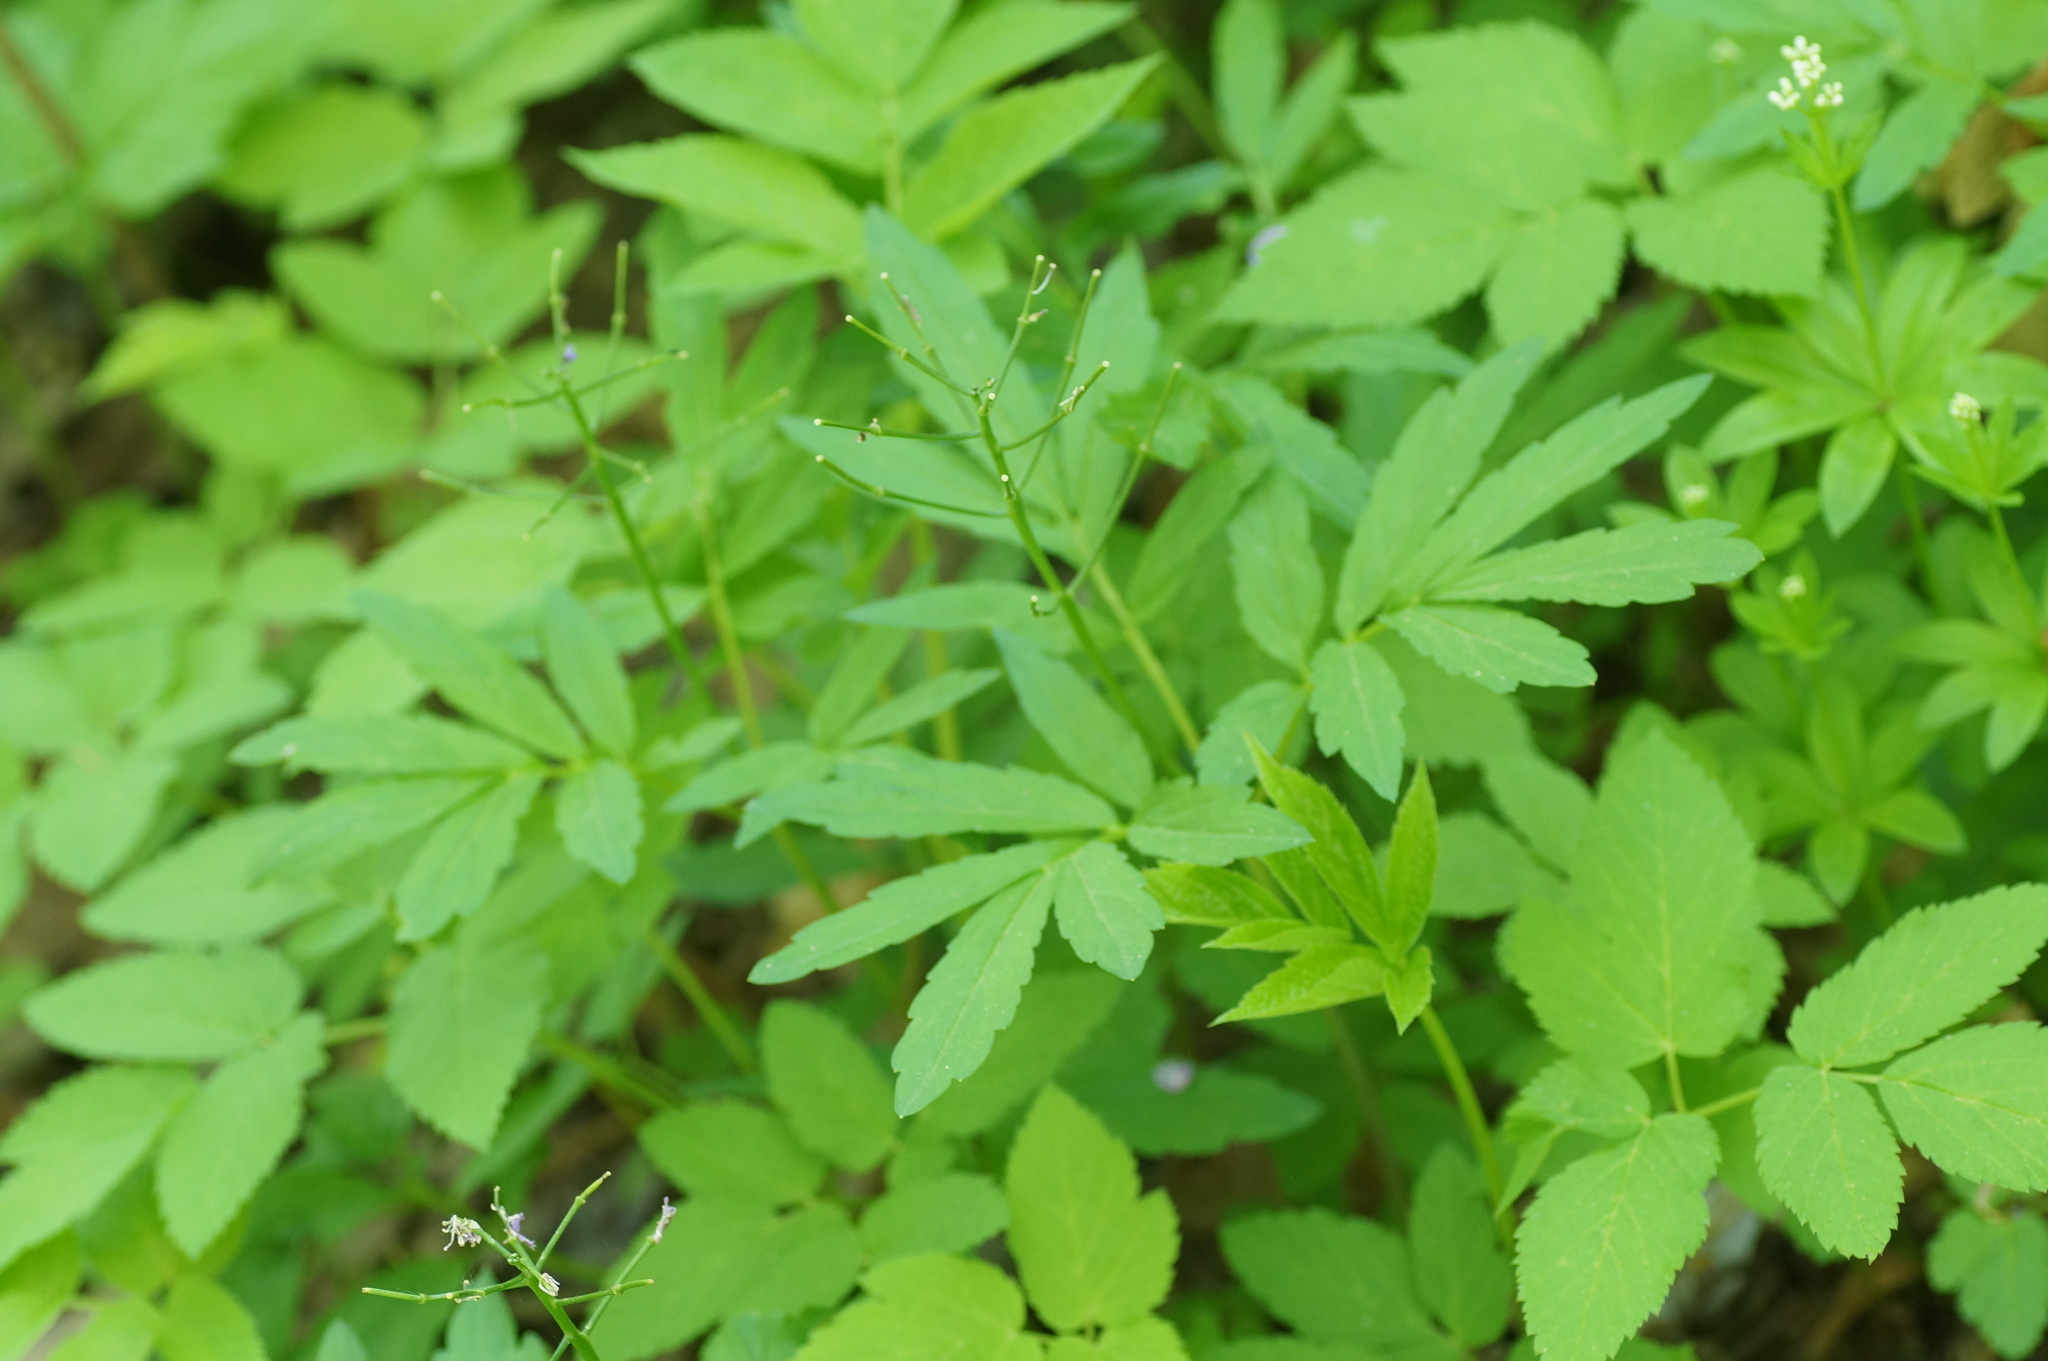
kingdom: Plantae
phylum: Tracheophyta
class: Magnoliopsida
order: Brassicales
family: Brassicaceae
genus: Cardamine
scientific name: Cardamine quinquefolia
